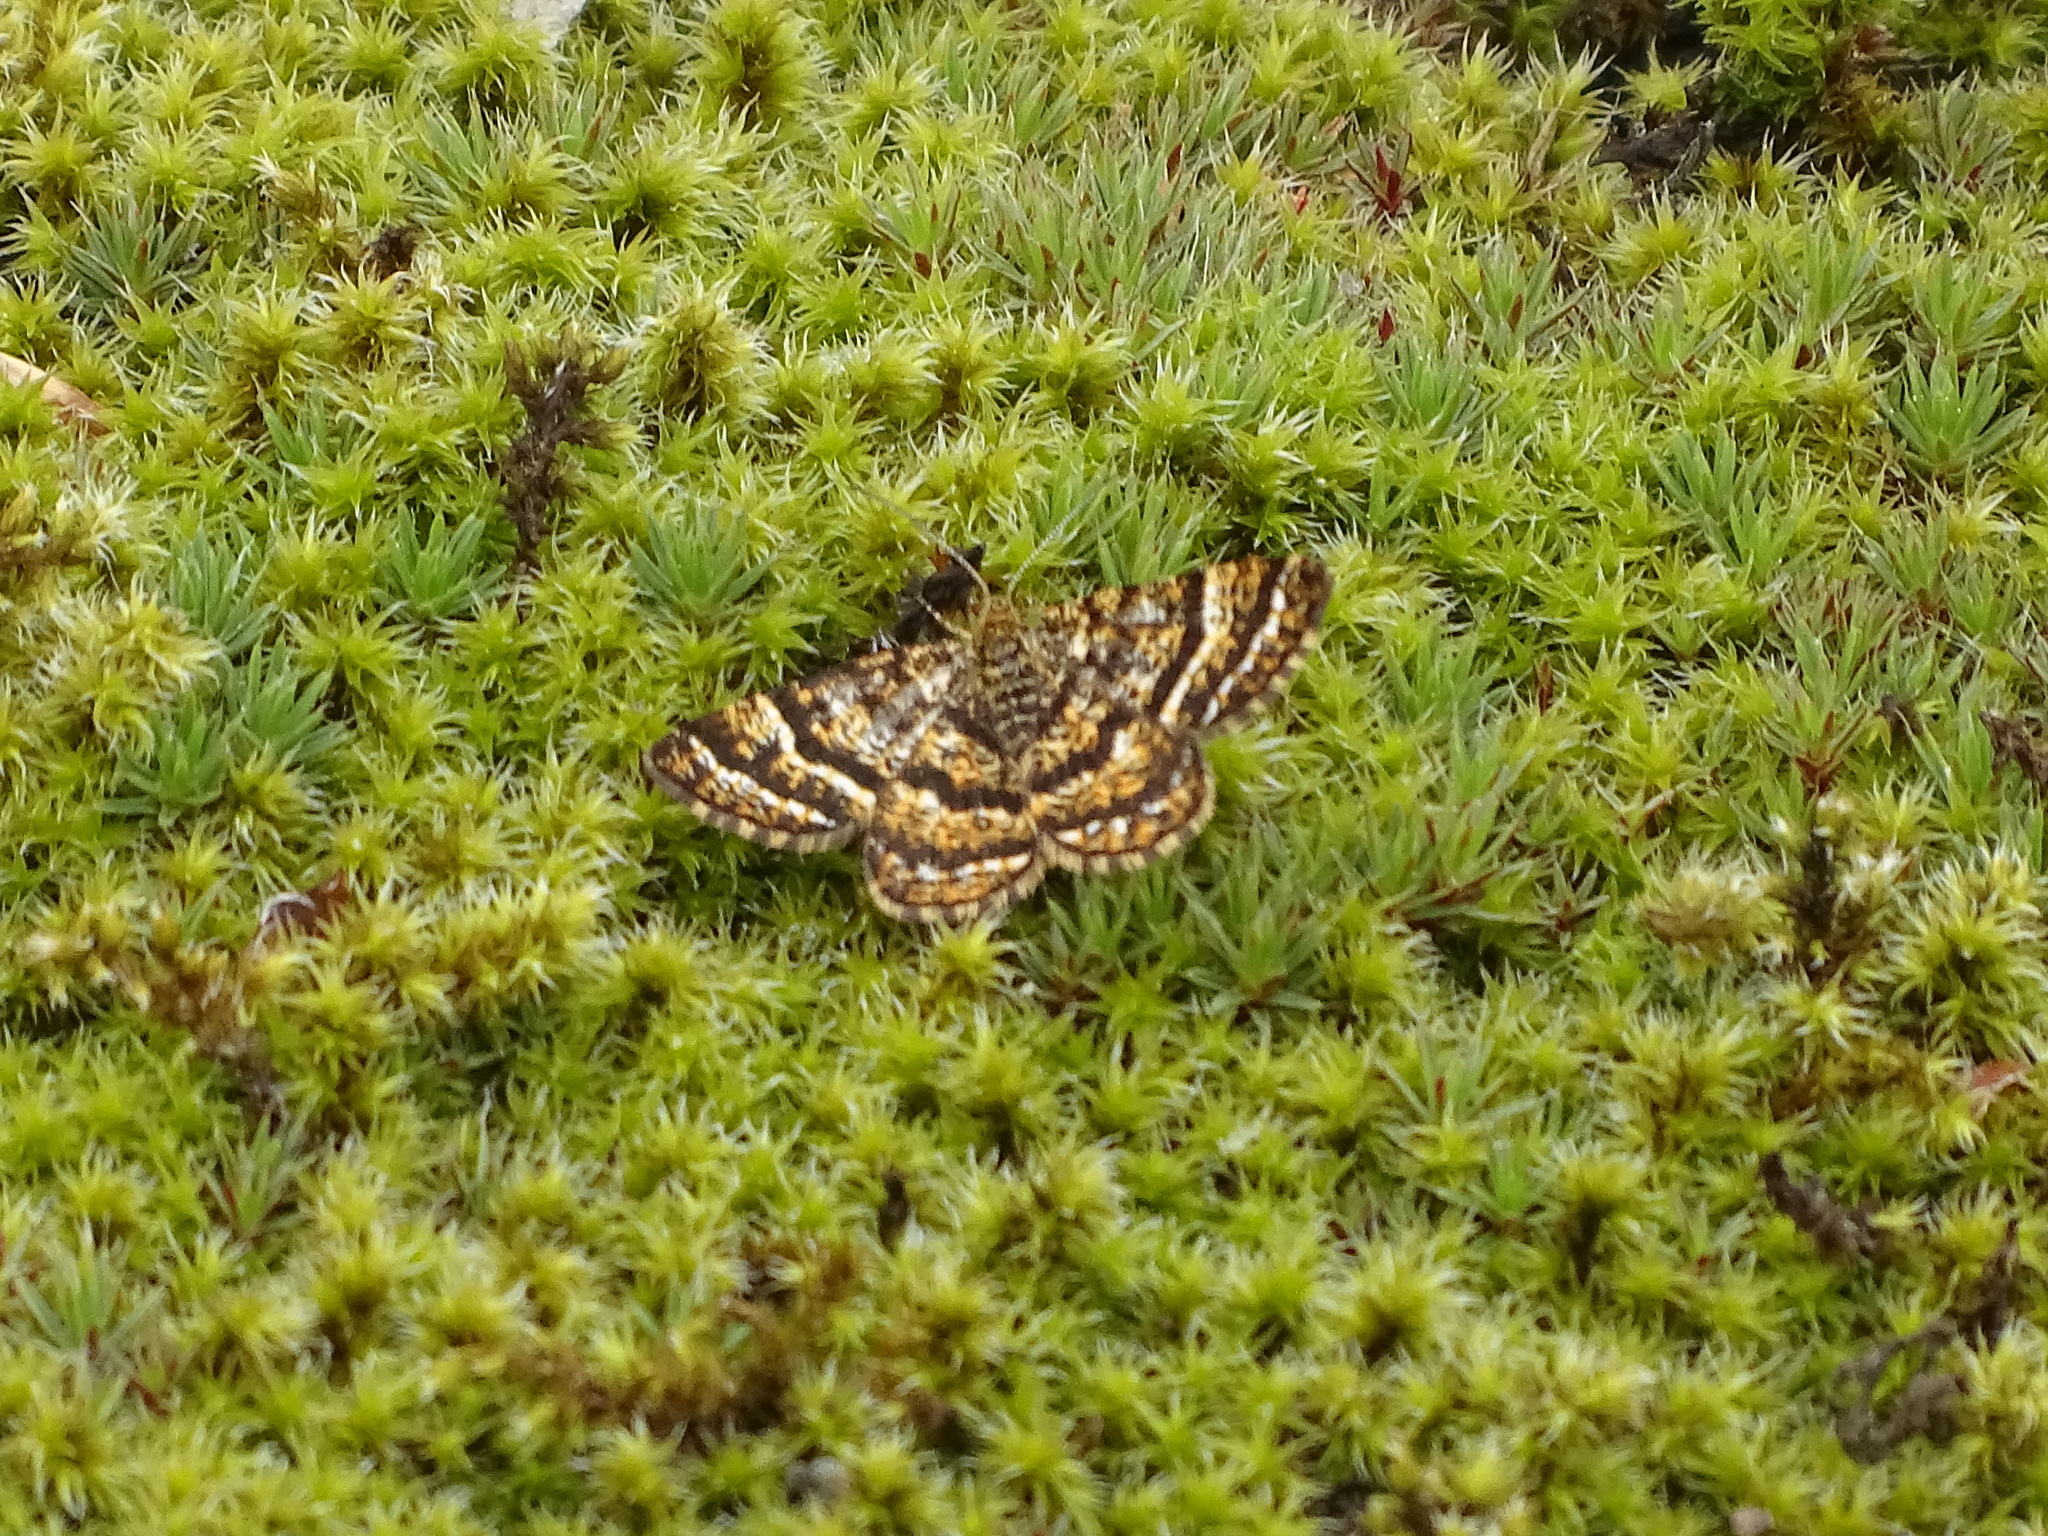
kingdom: Animalia
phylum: Arthropoda
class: Insecta
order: Lepidoptera
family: Geometridae
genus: Macaria
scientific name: Macaria truncataria
